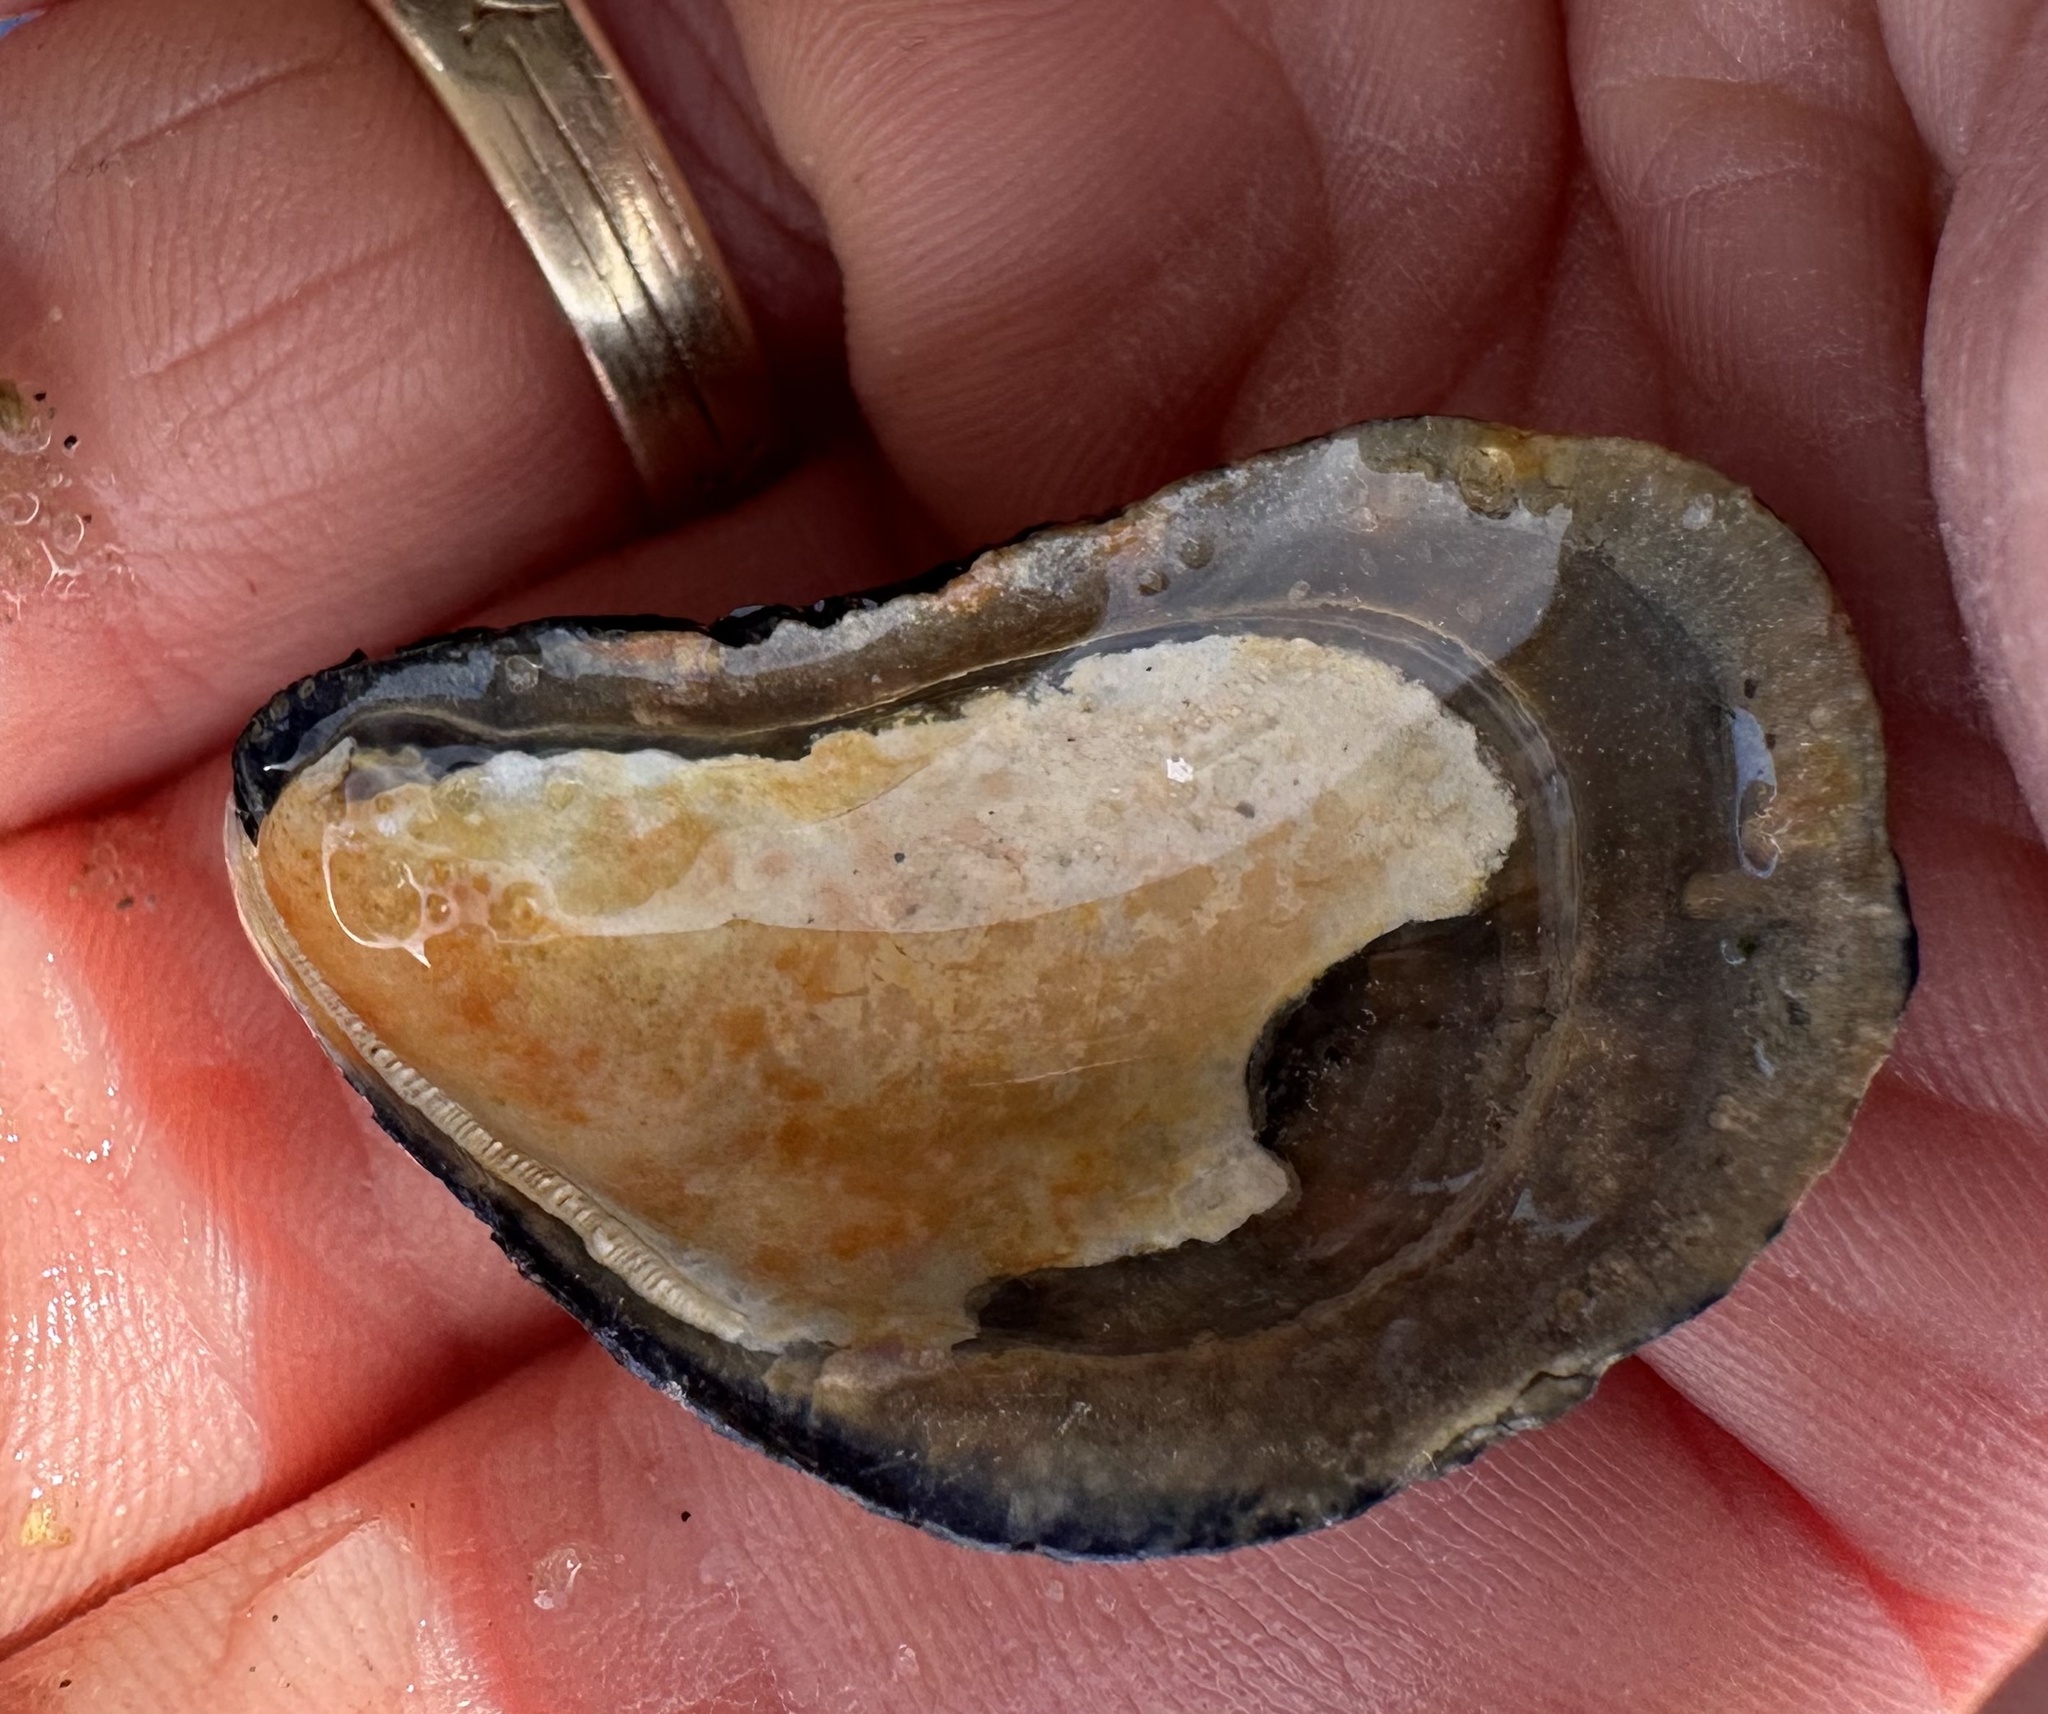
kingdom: Animalia
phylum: Mollusca
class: Bivalvia
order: Mytilida
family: Mytilidae
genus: Mytilus
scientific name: Mytilus edulis
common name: Blue mussel
